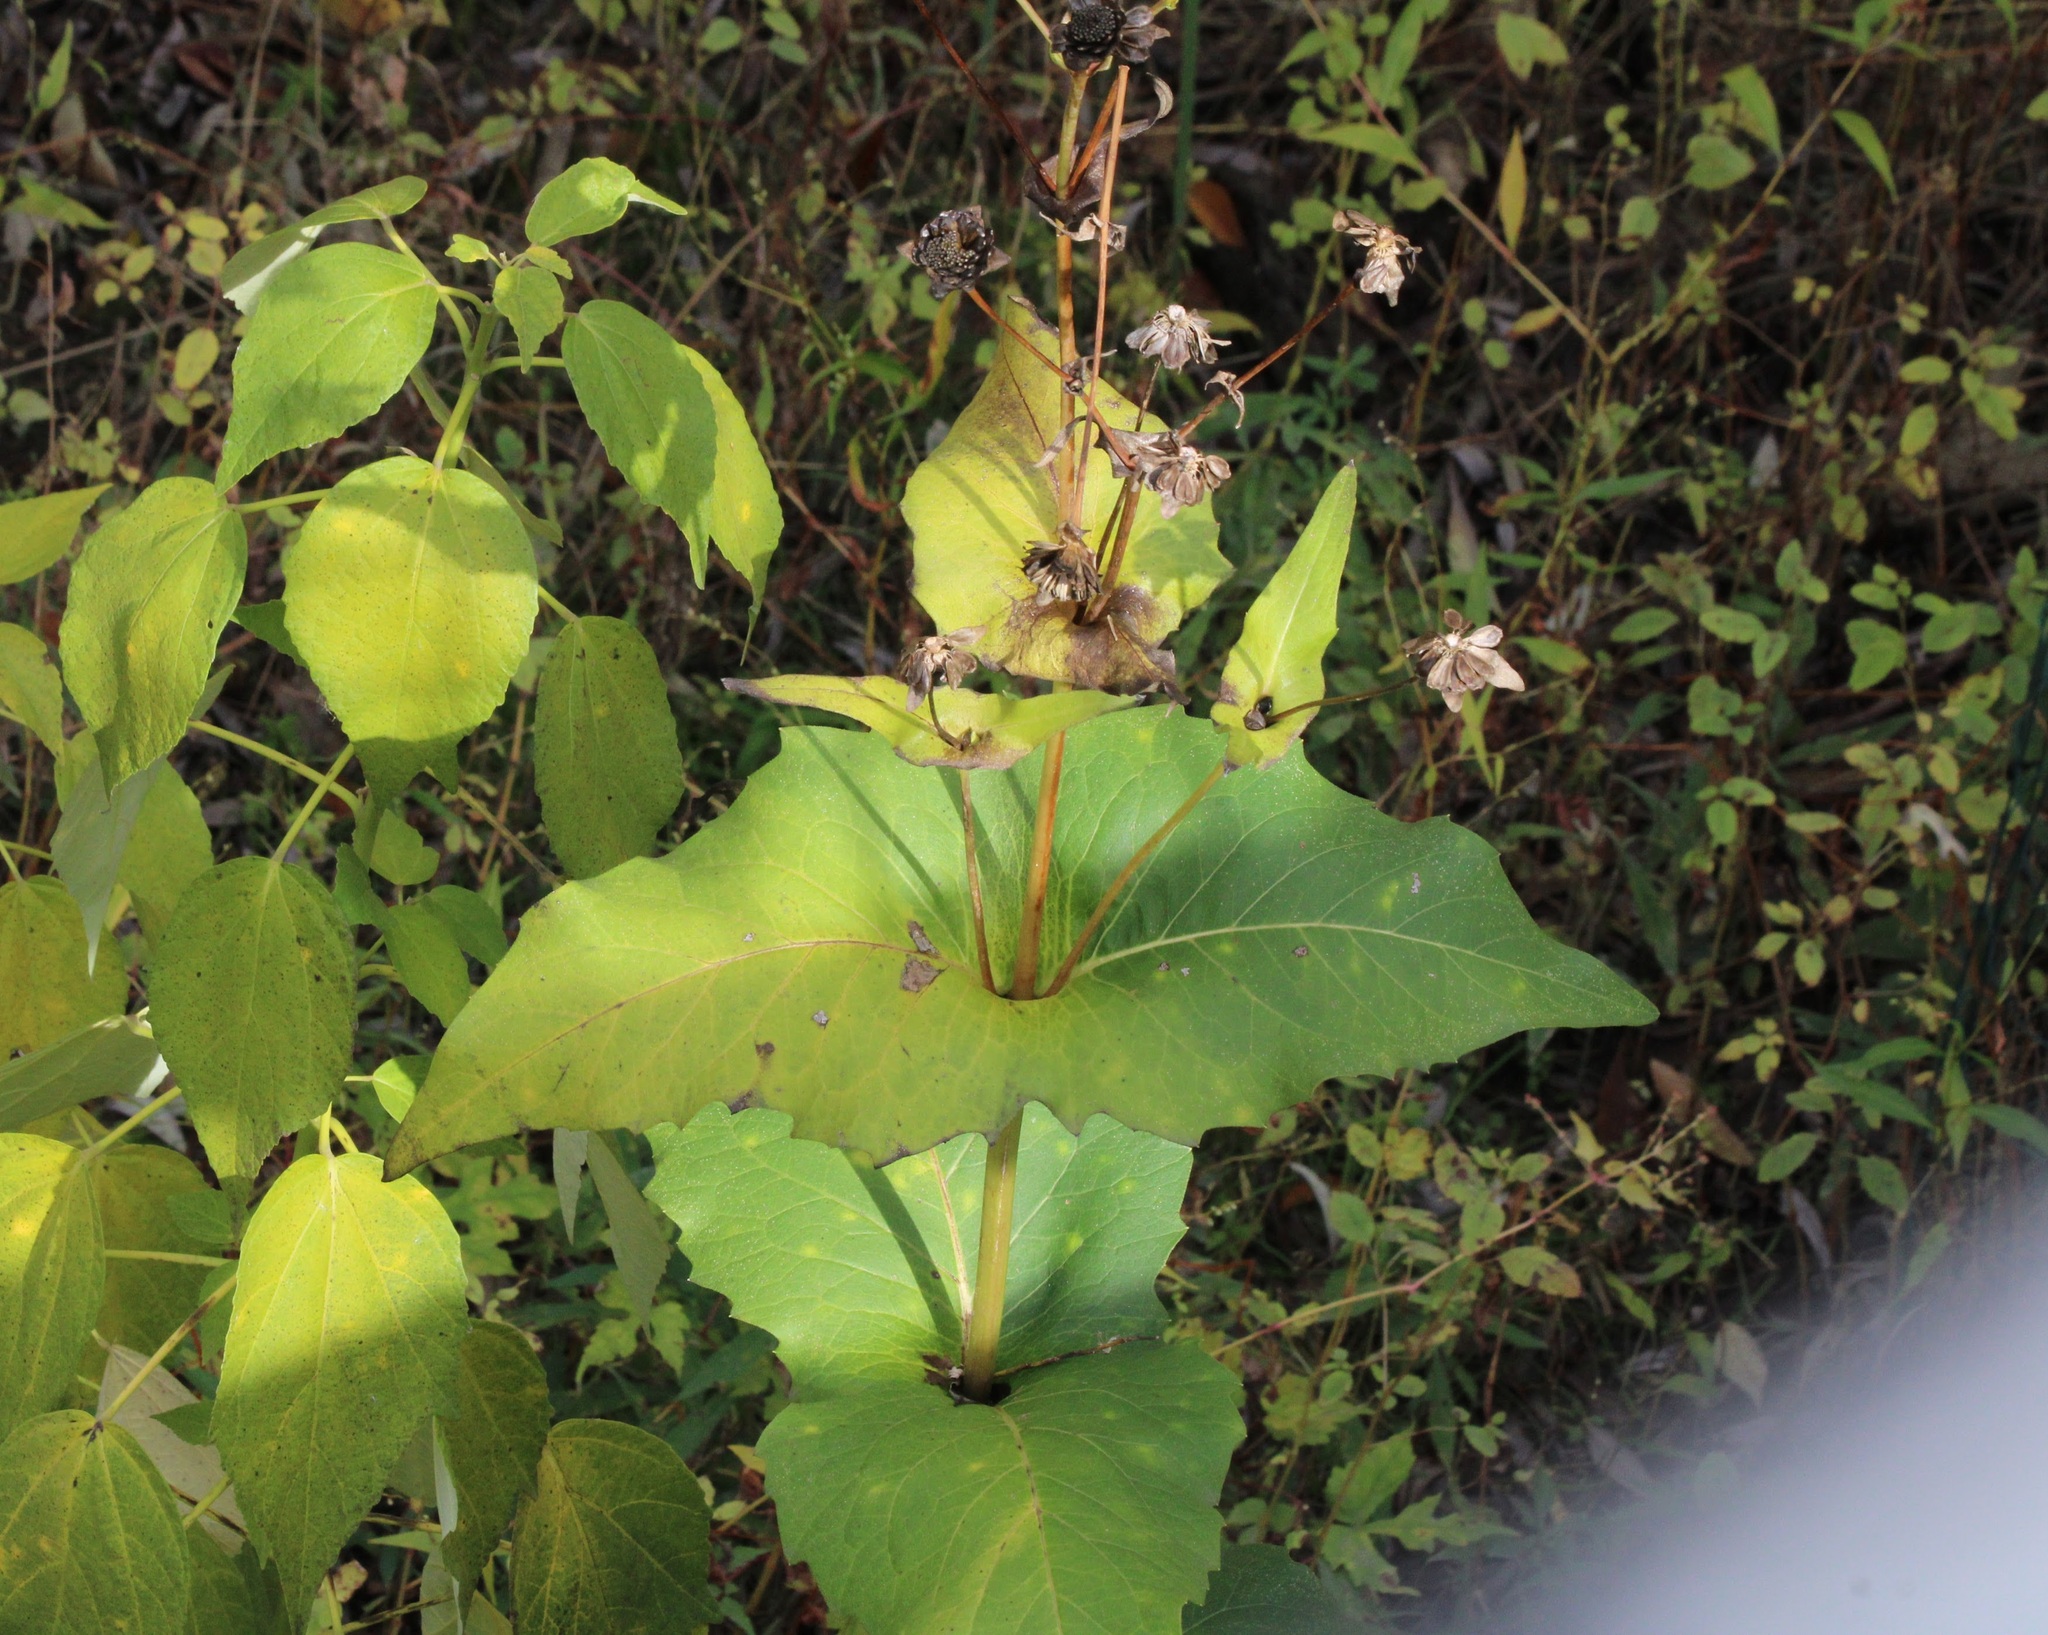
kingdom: Plantae
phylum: Tracheophyta
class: Magnoliopsida
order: Asterales
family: Asteraceae
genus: Silphium
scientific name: Silphium perfoliatum
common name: Cup-plant
